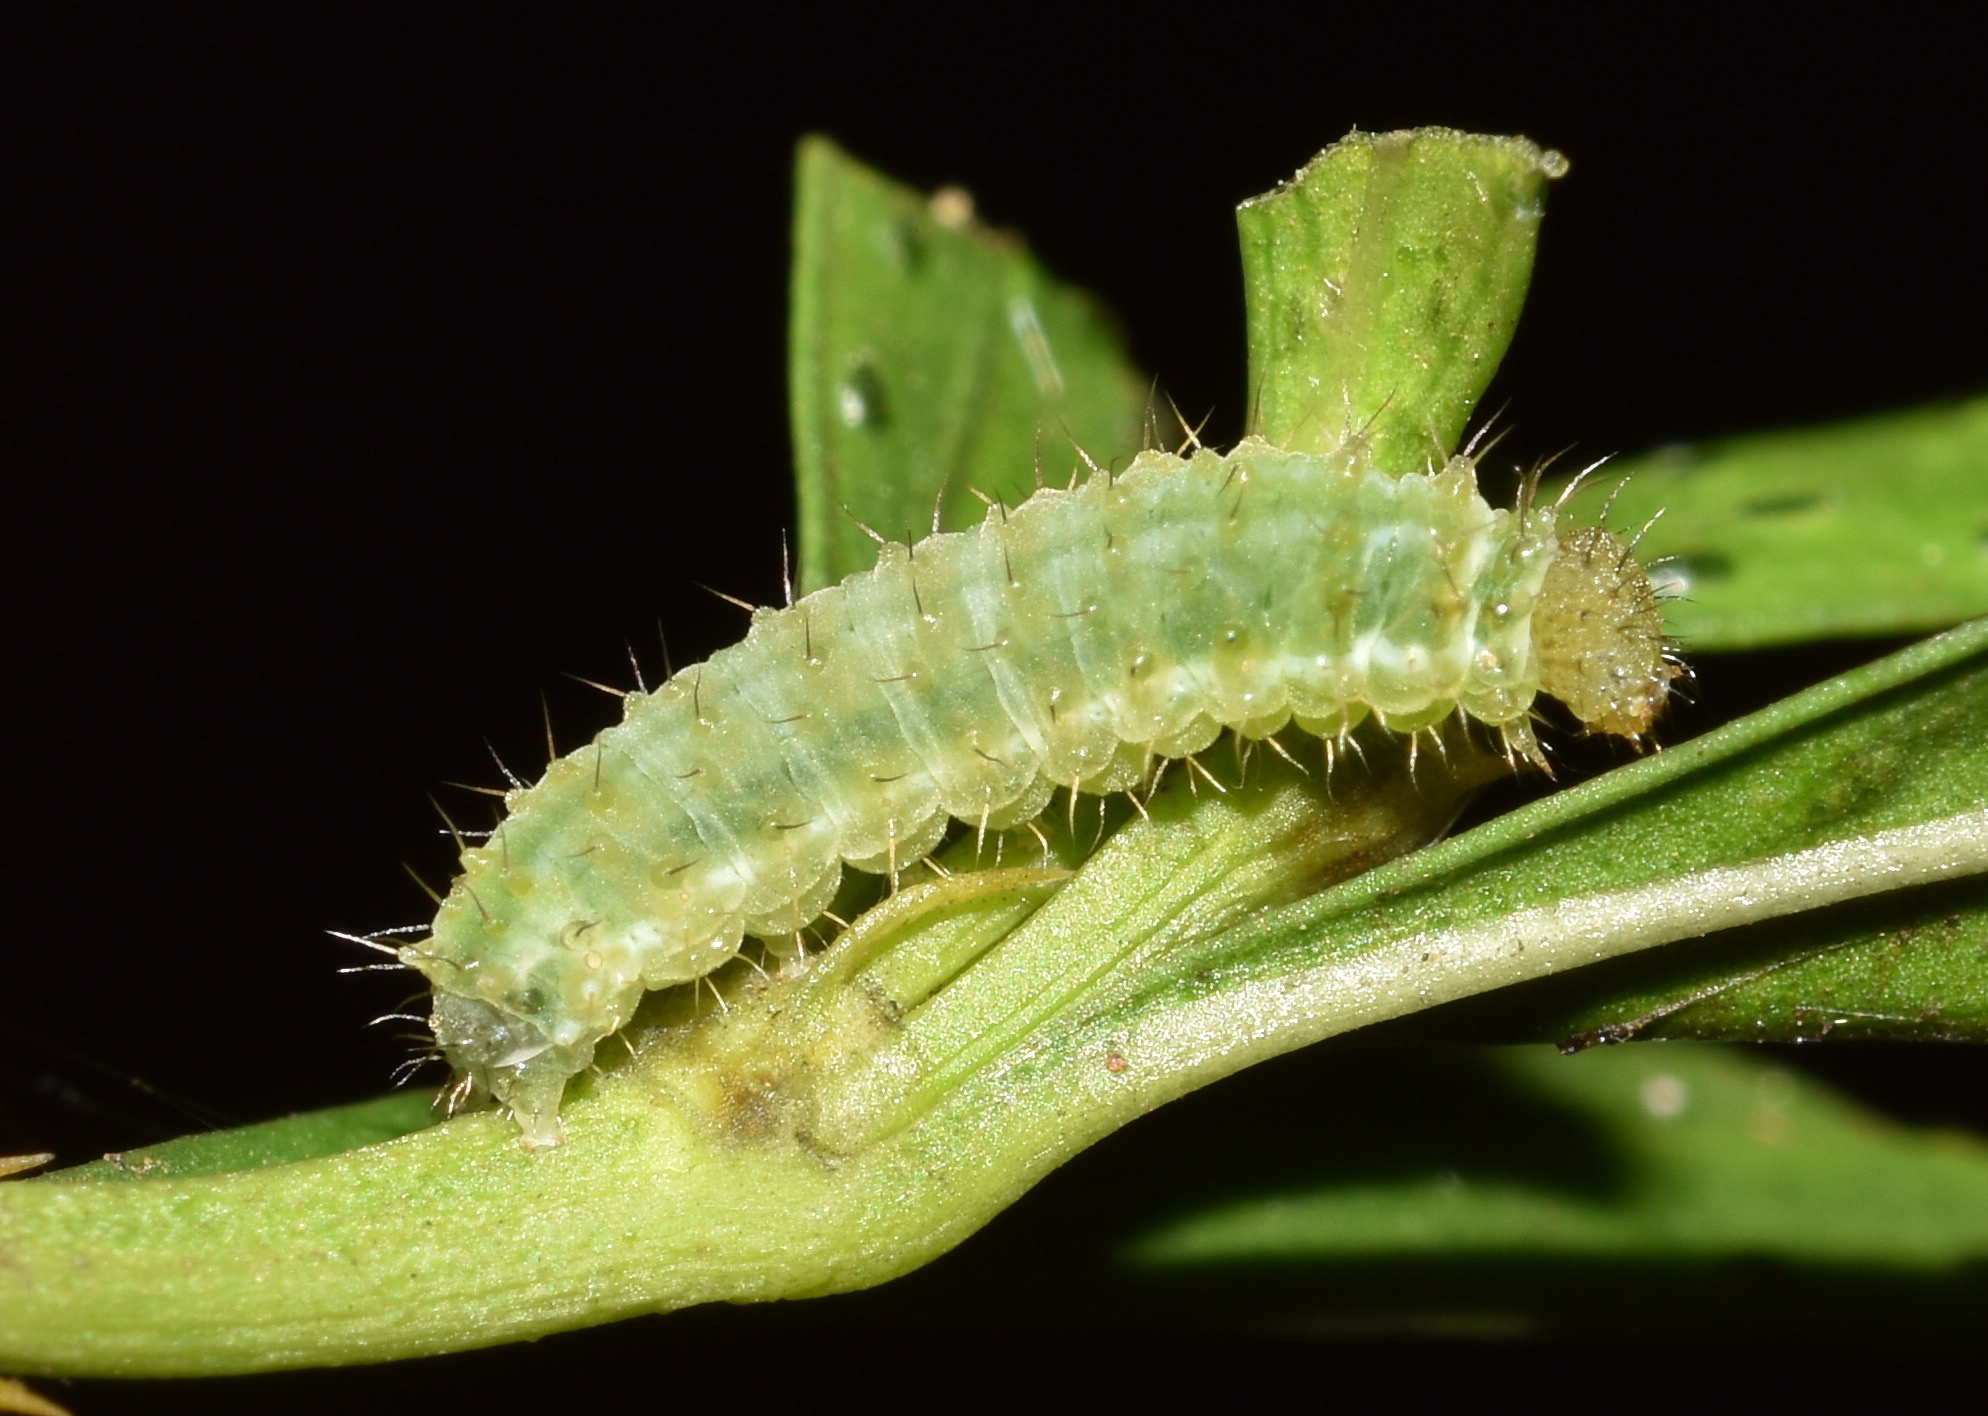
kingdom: Animalia
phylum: Arthropoda
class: Insecta
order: Lepidoptera
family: Uraniidae
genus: Epiplema
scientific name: Epiplema anomala
